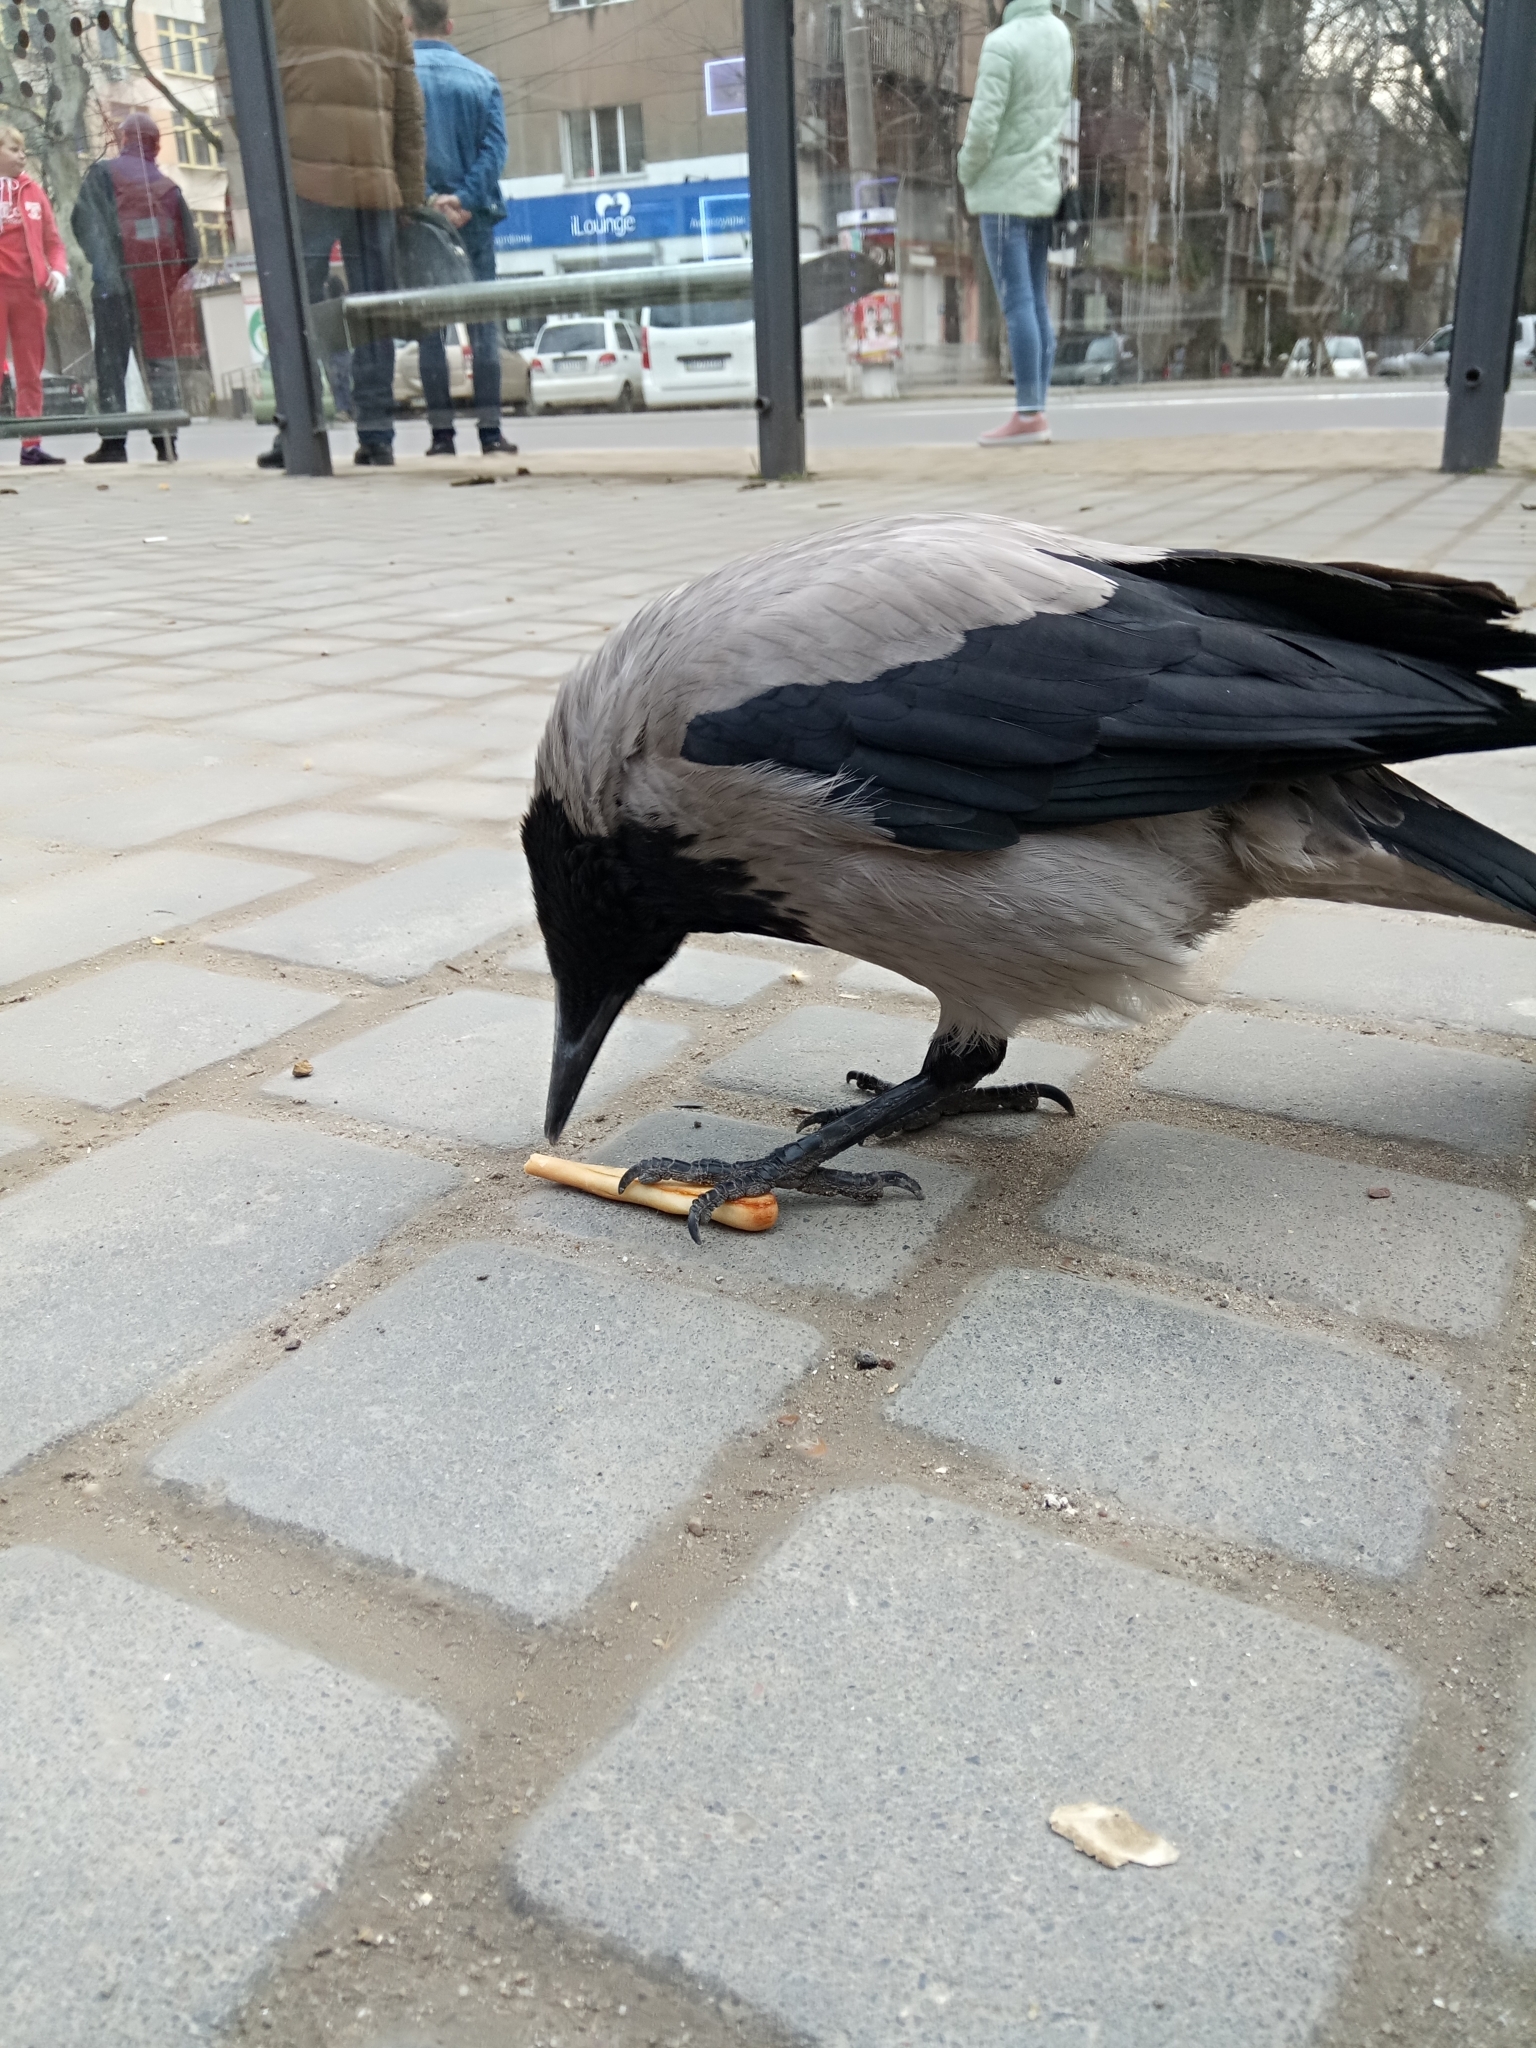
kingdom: Animalia
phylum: Chordata
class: Aves
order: Passeriformes
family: Corvidae
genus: Corvus
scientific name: Corvus cornix
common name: Hooded crow
